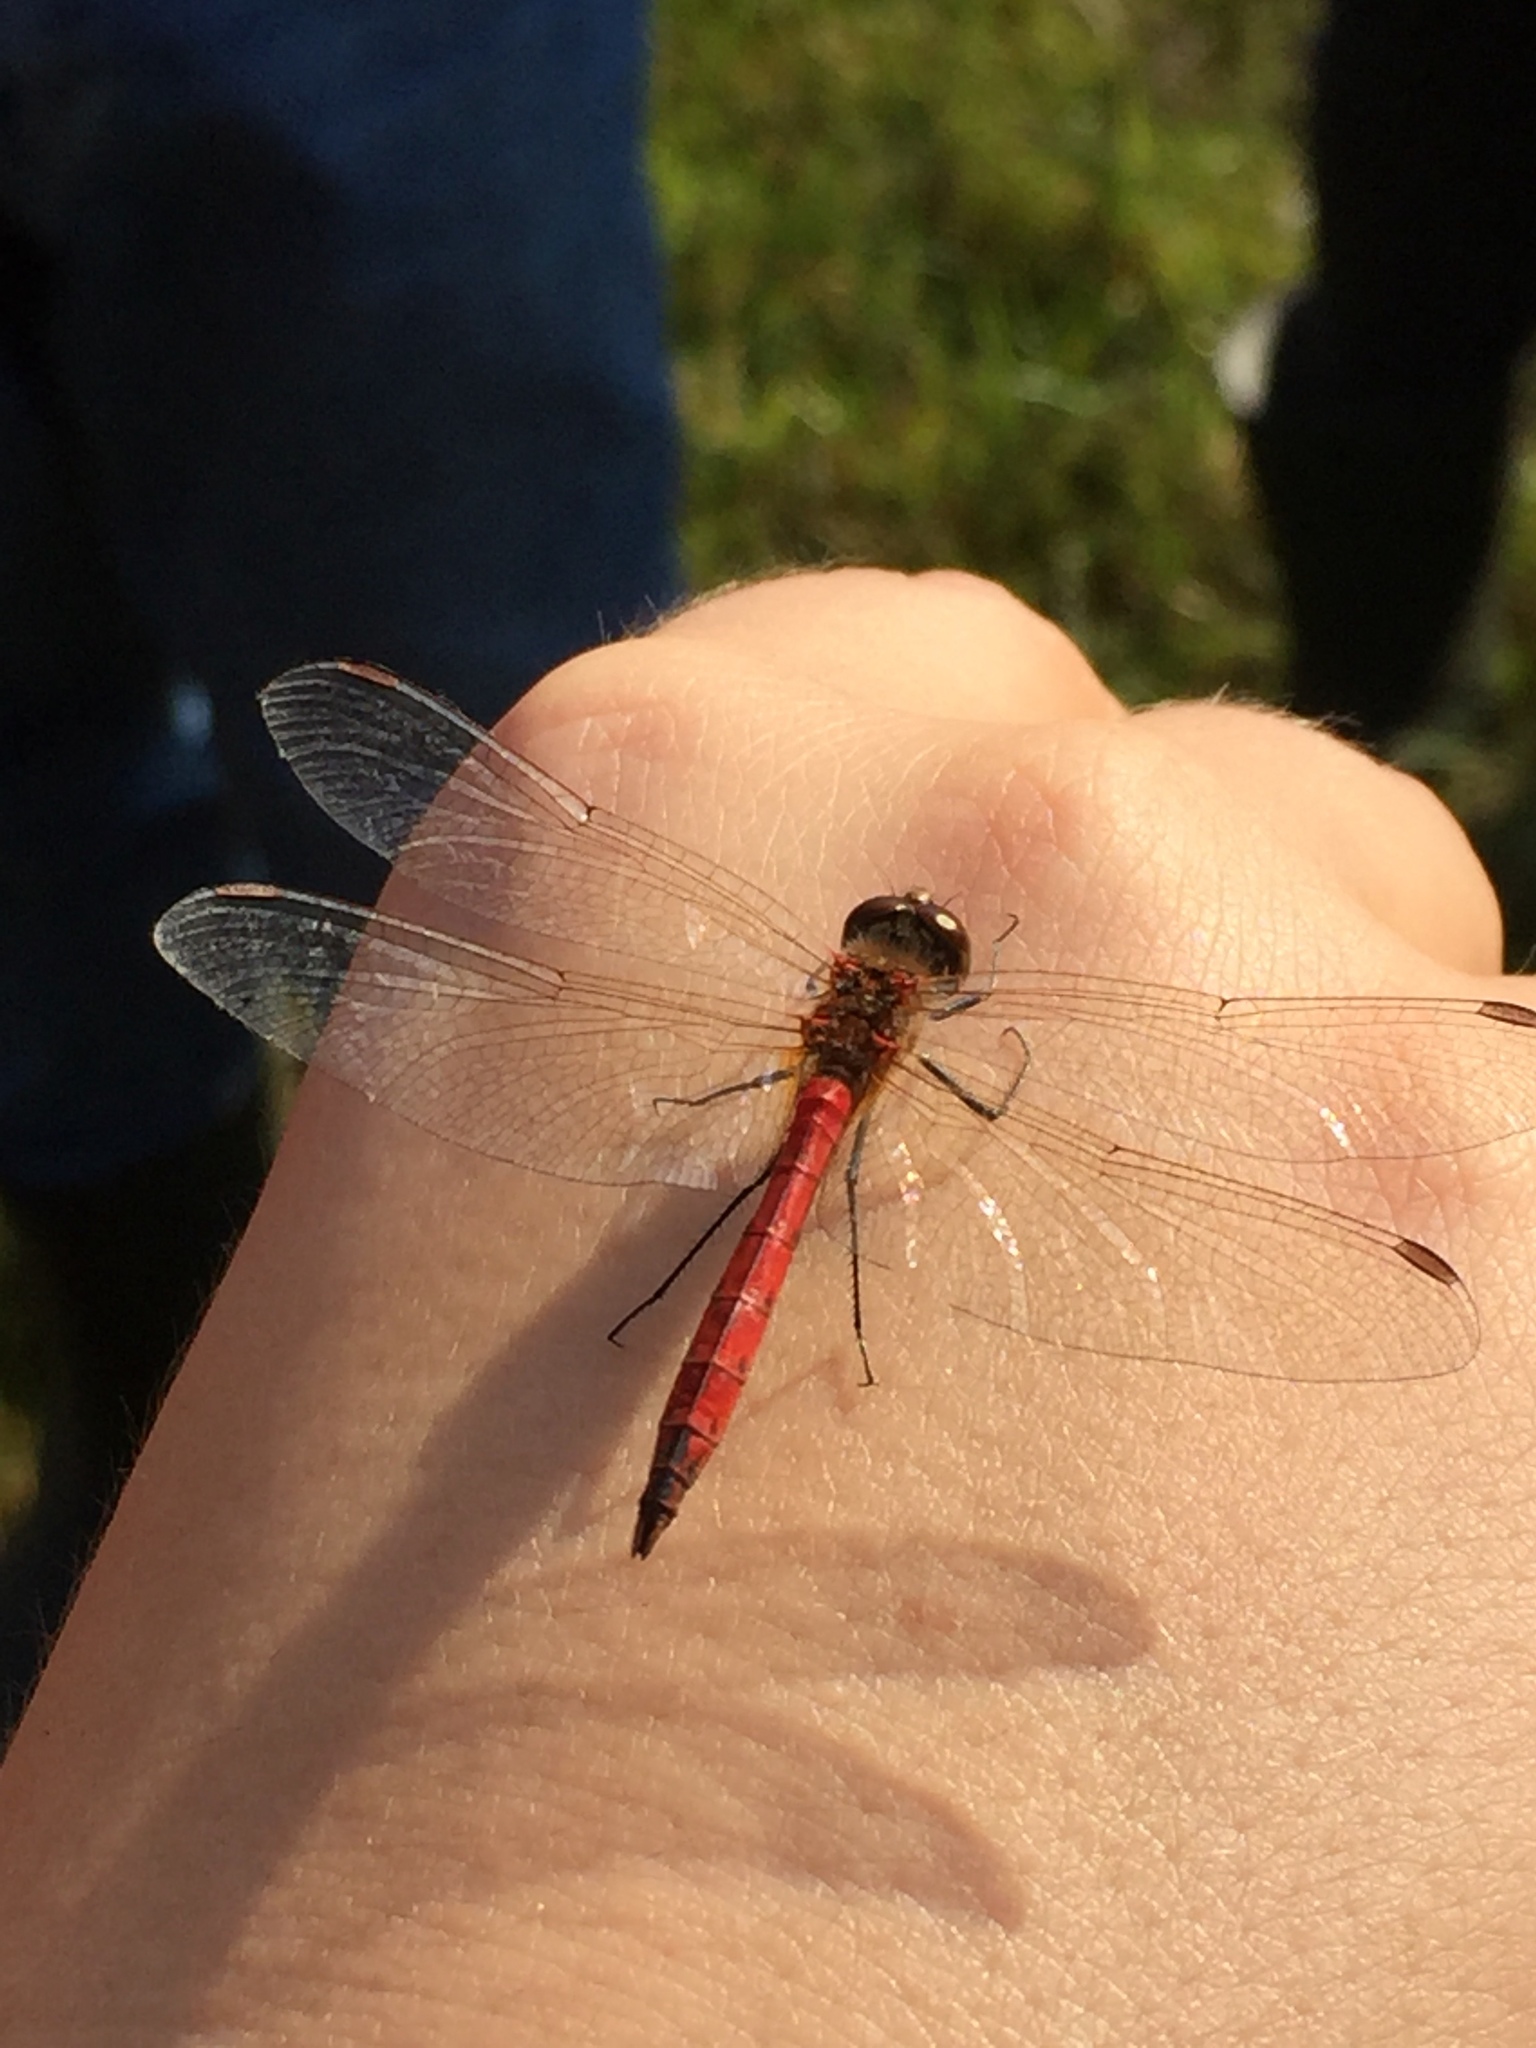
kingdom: Animalia
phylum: Arthropoda
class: Insecta
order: Odonata
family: Libellulidae
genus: Sympetrum
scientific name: Sympetrum depressiusculum
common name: Spotted darter
